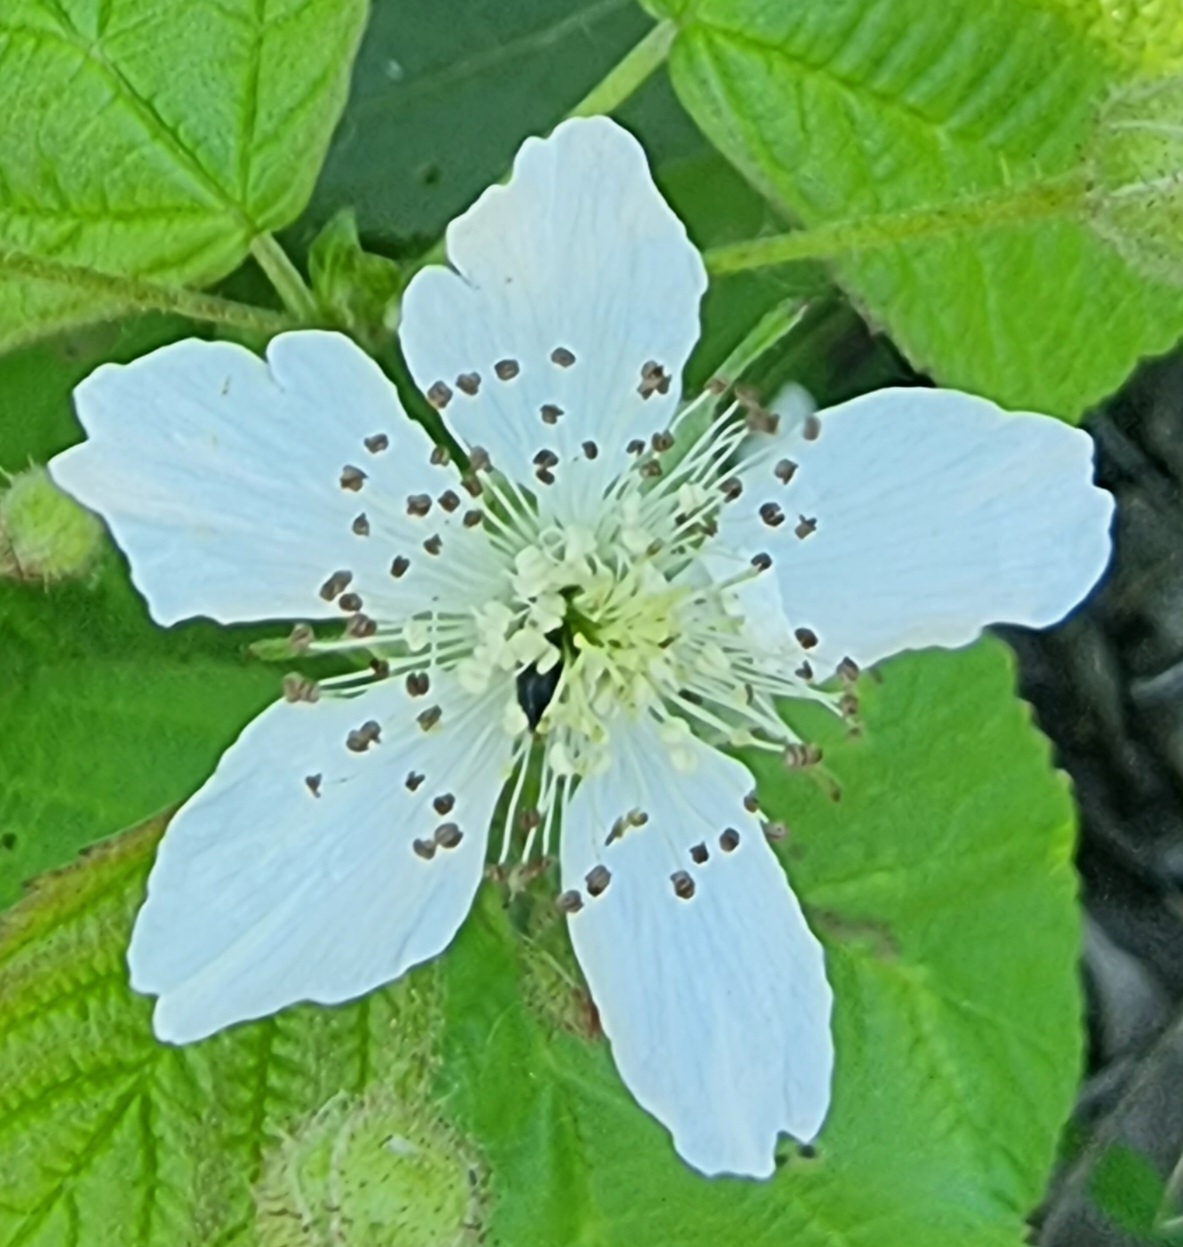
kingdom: Plantae
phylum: Tracheophyta
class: Magnoliopsida
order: Rosales
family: Rosaceae
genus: Rubus
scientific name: Rubus caesius
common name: Dewberry
